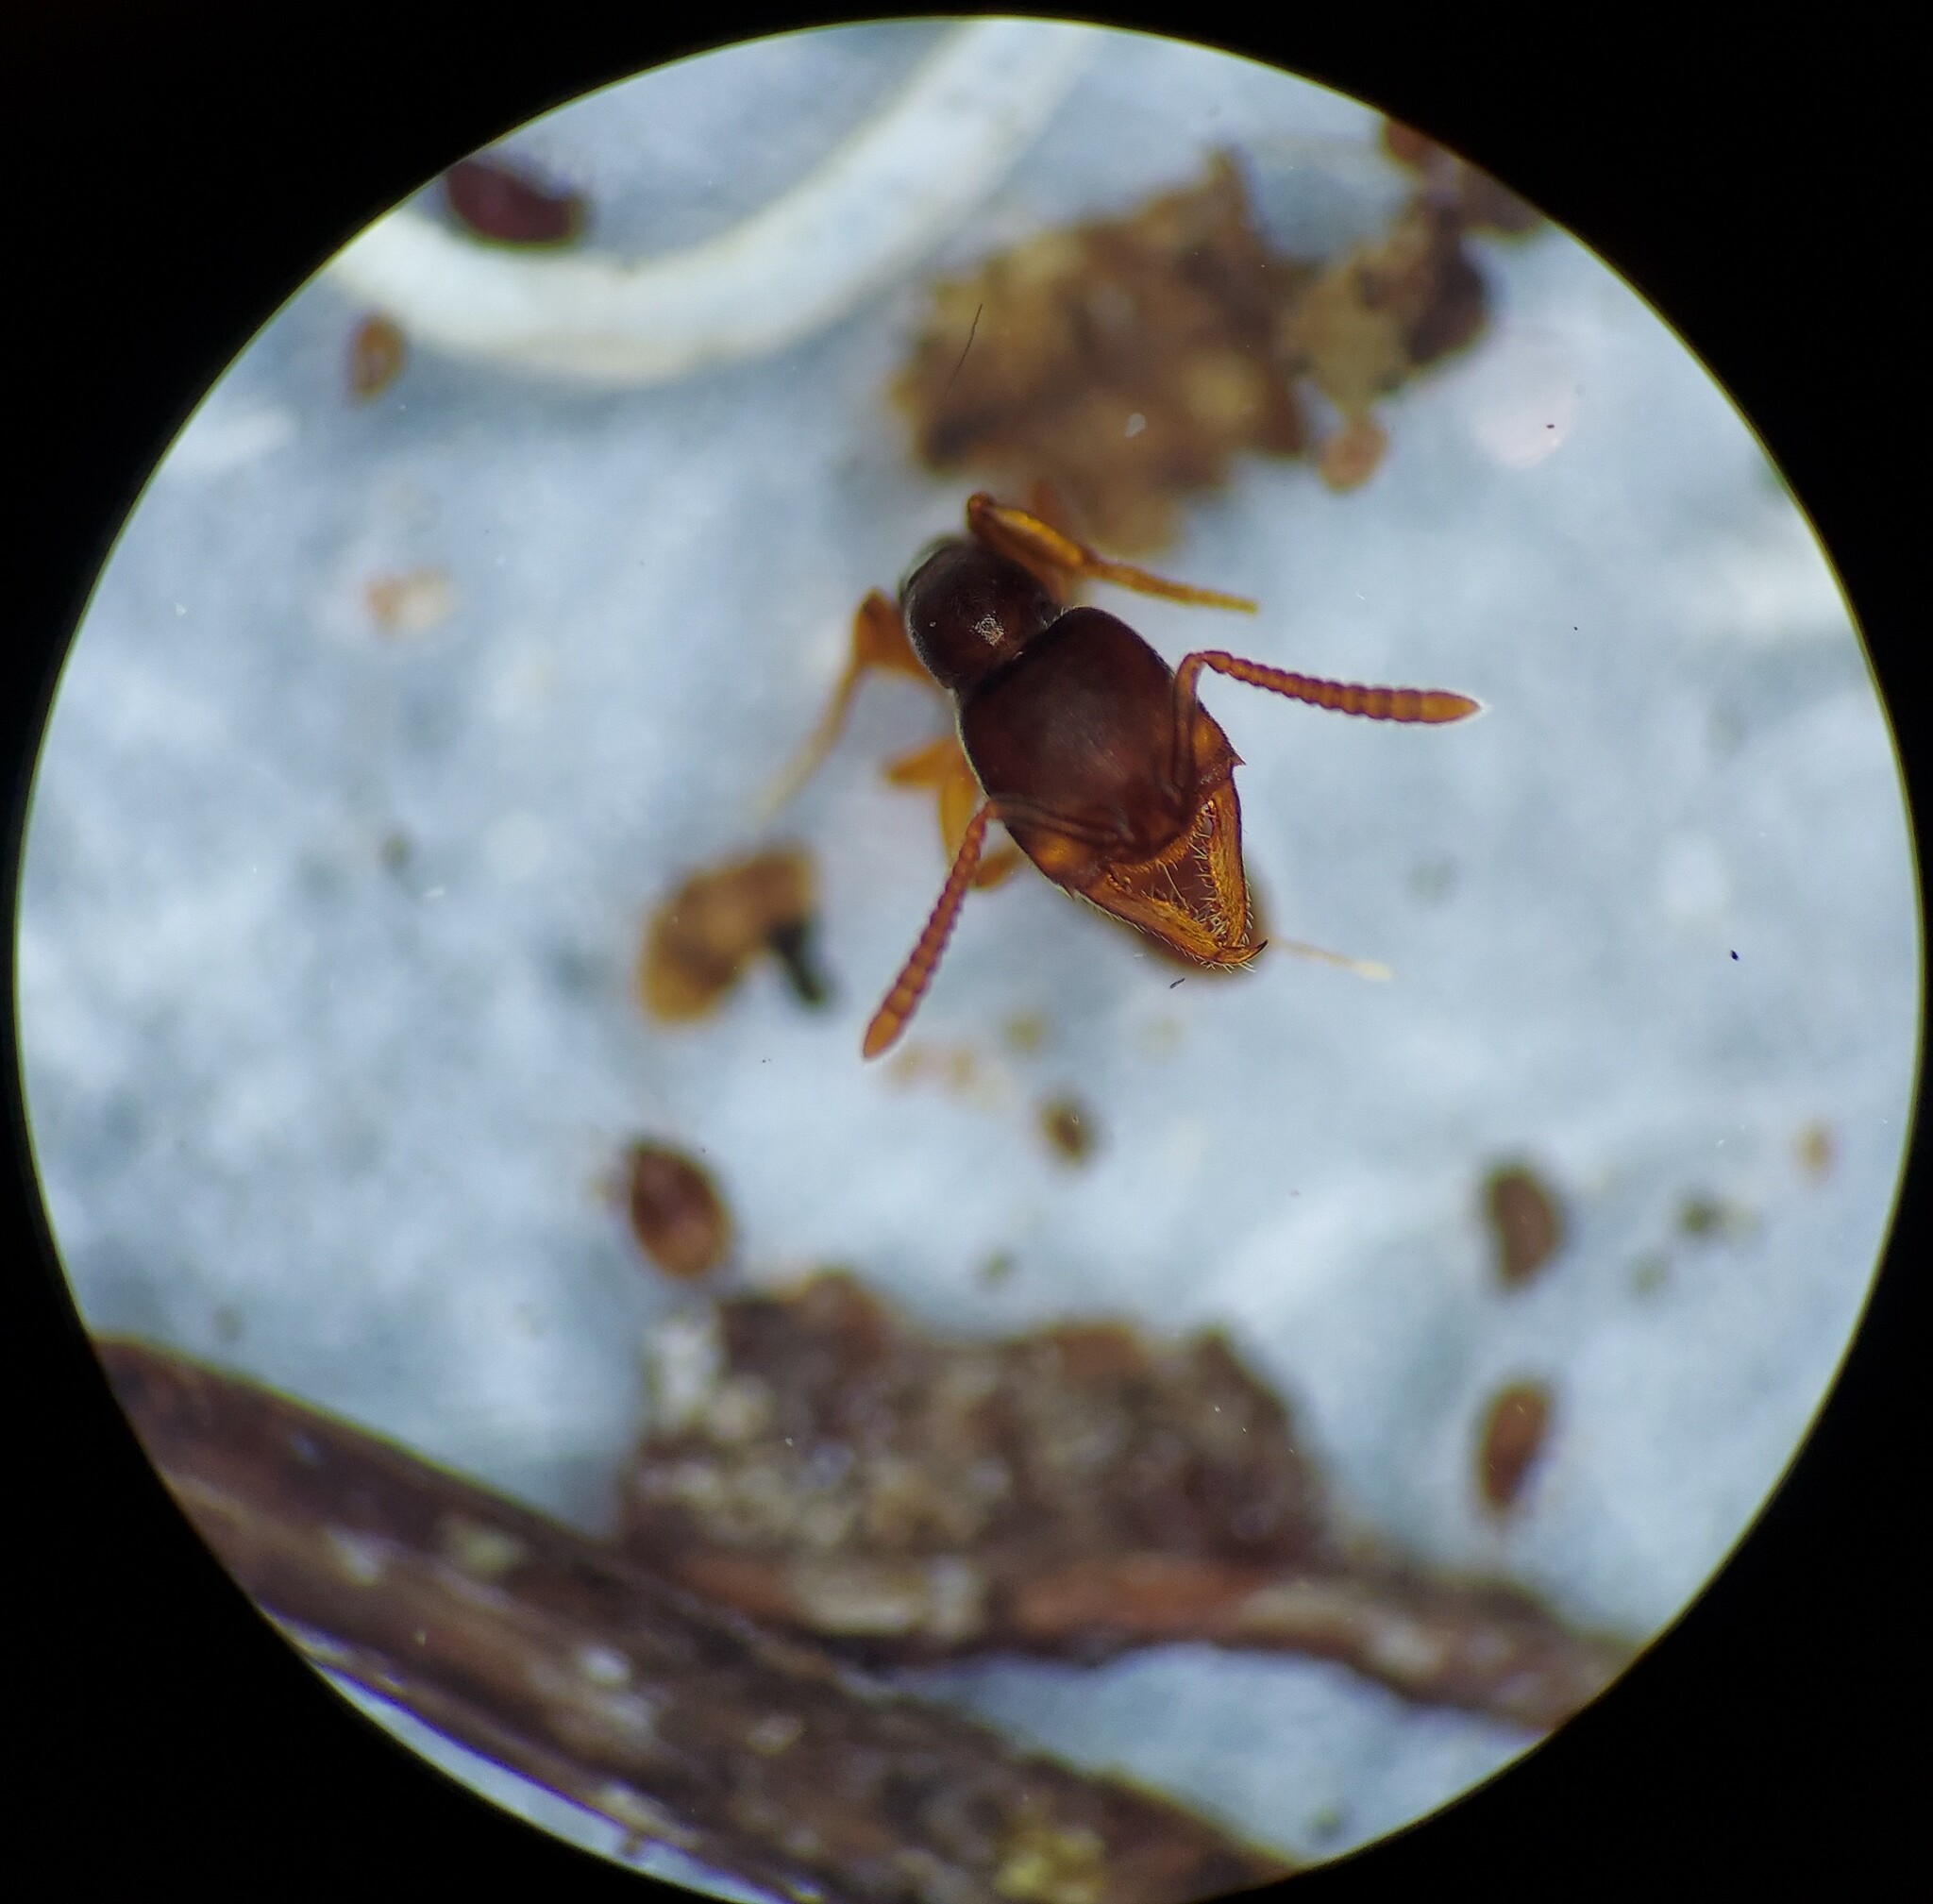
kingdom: Animalia
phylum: Arthropoda
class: Insecta
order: Hymenoptera
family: Formicidae
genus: Stigmatomma
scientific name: Stigmatomma pallipes
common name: Vampire ant
